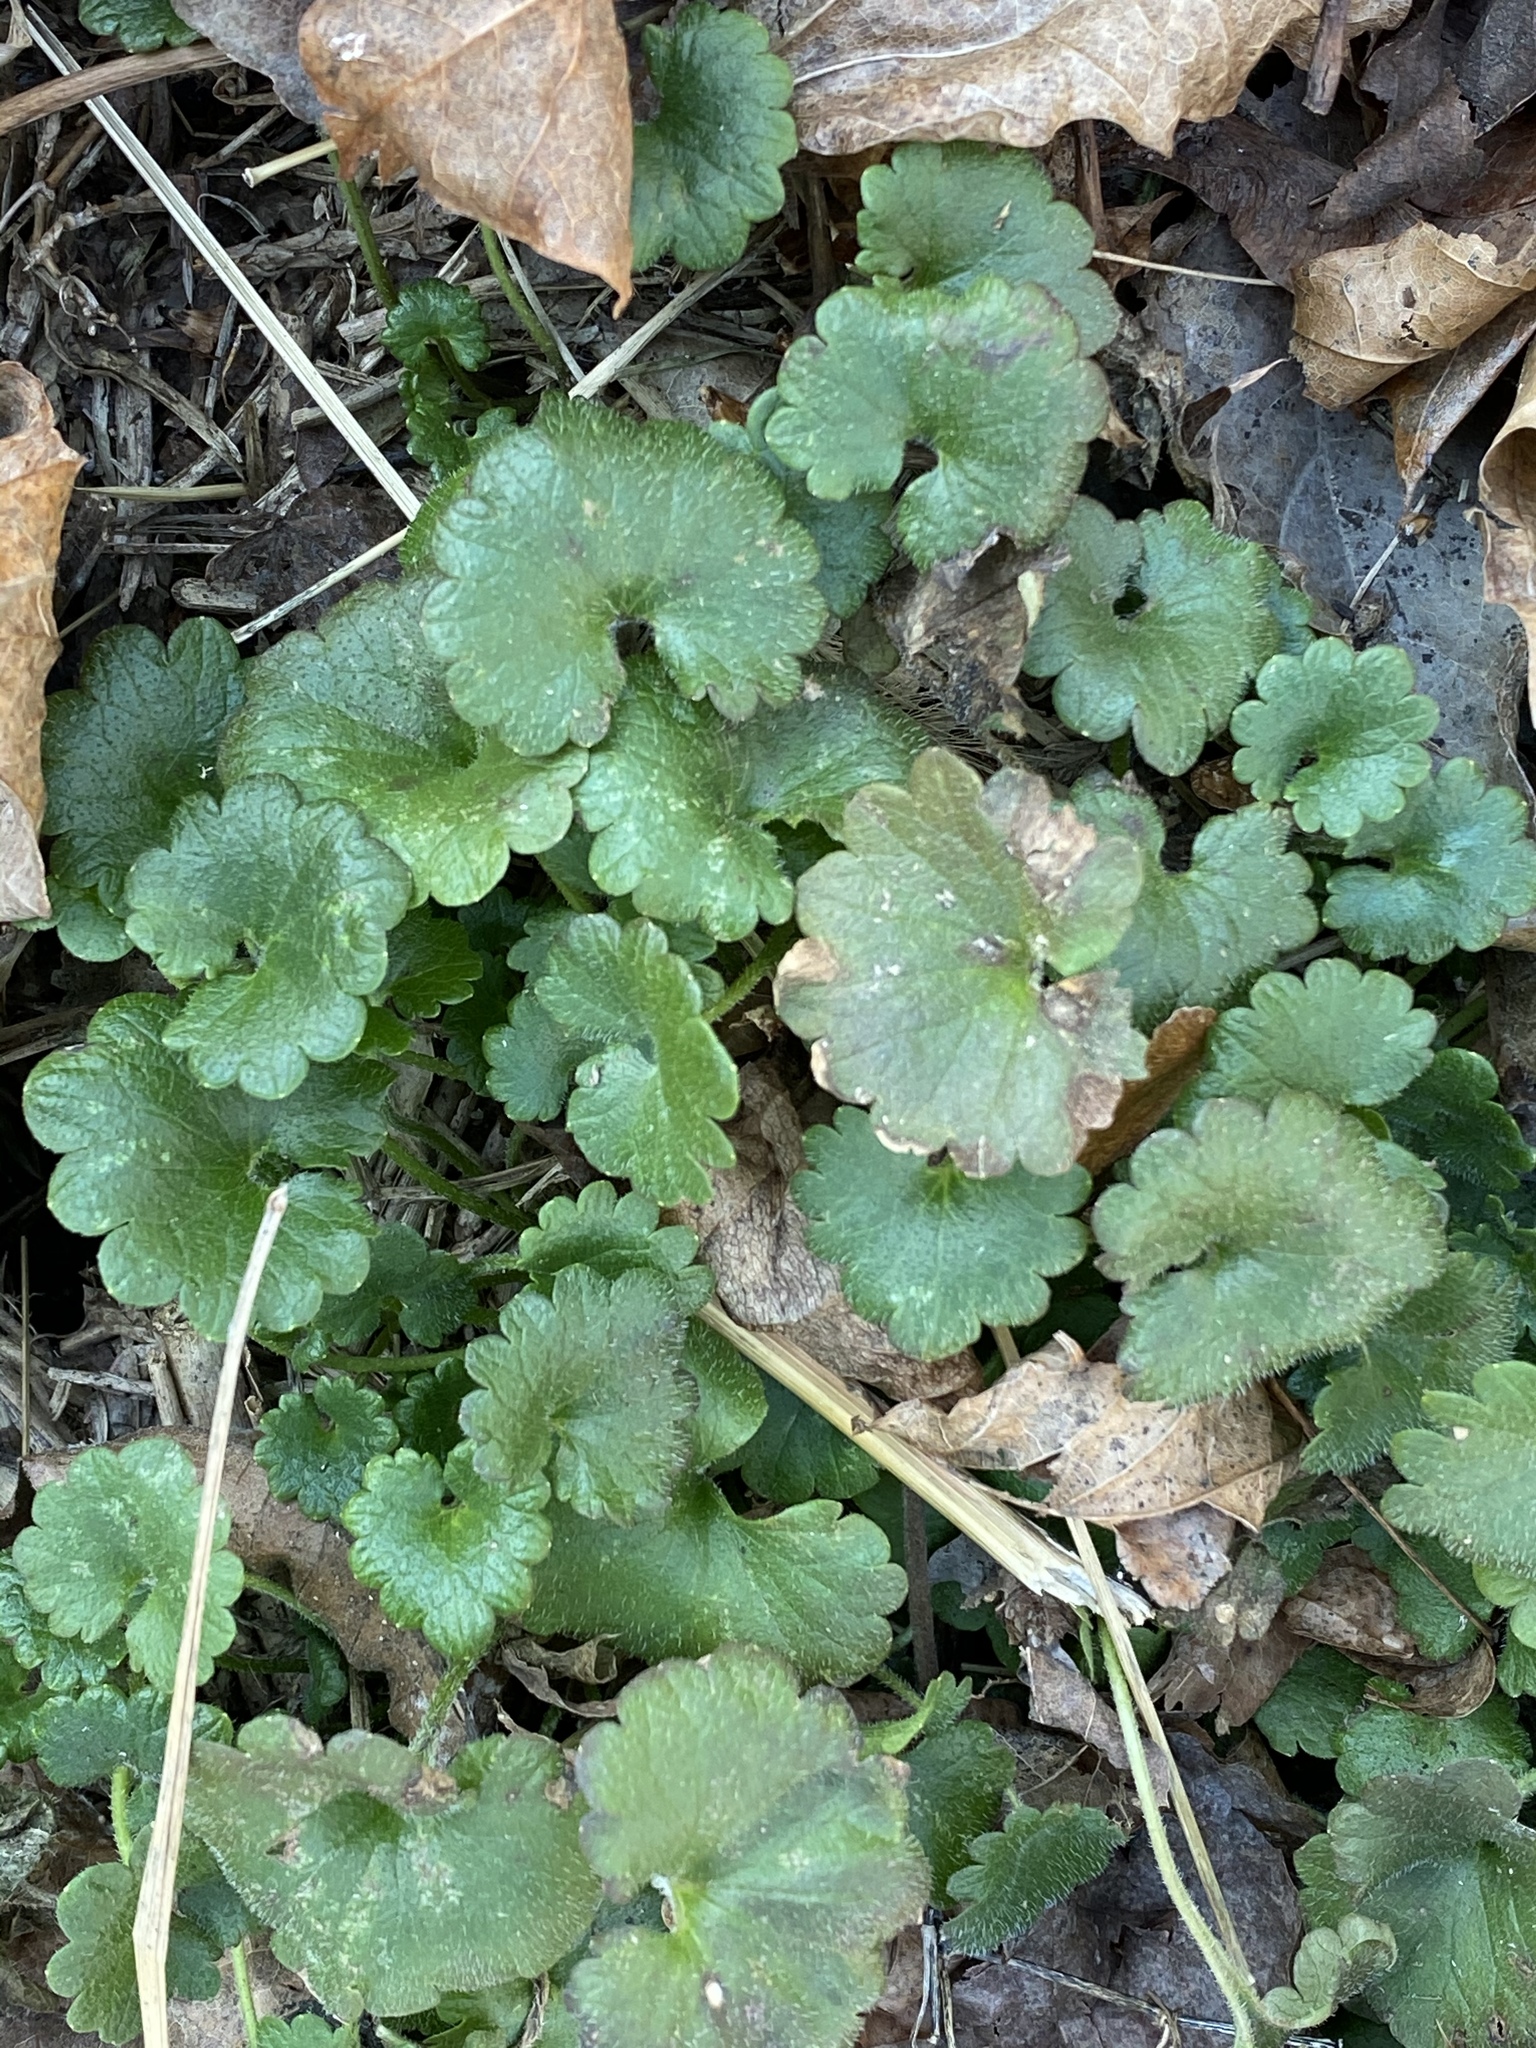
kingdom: Plantae
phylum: Tracheophyta
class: Magnoliopsida
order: Lamiales
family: Lamiaceae
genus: Glechoma
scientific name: Glechoma hederacea
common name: Ground ivy
